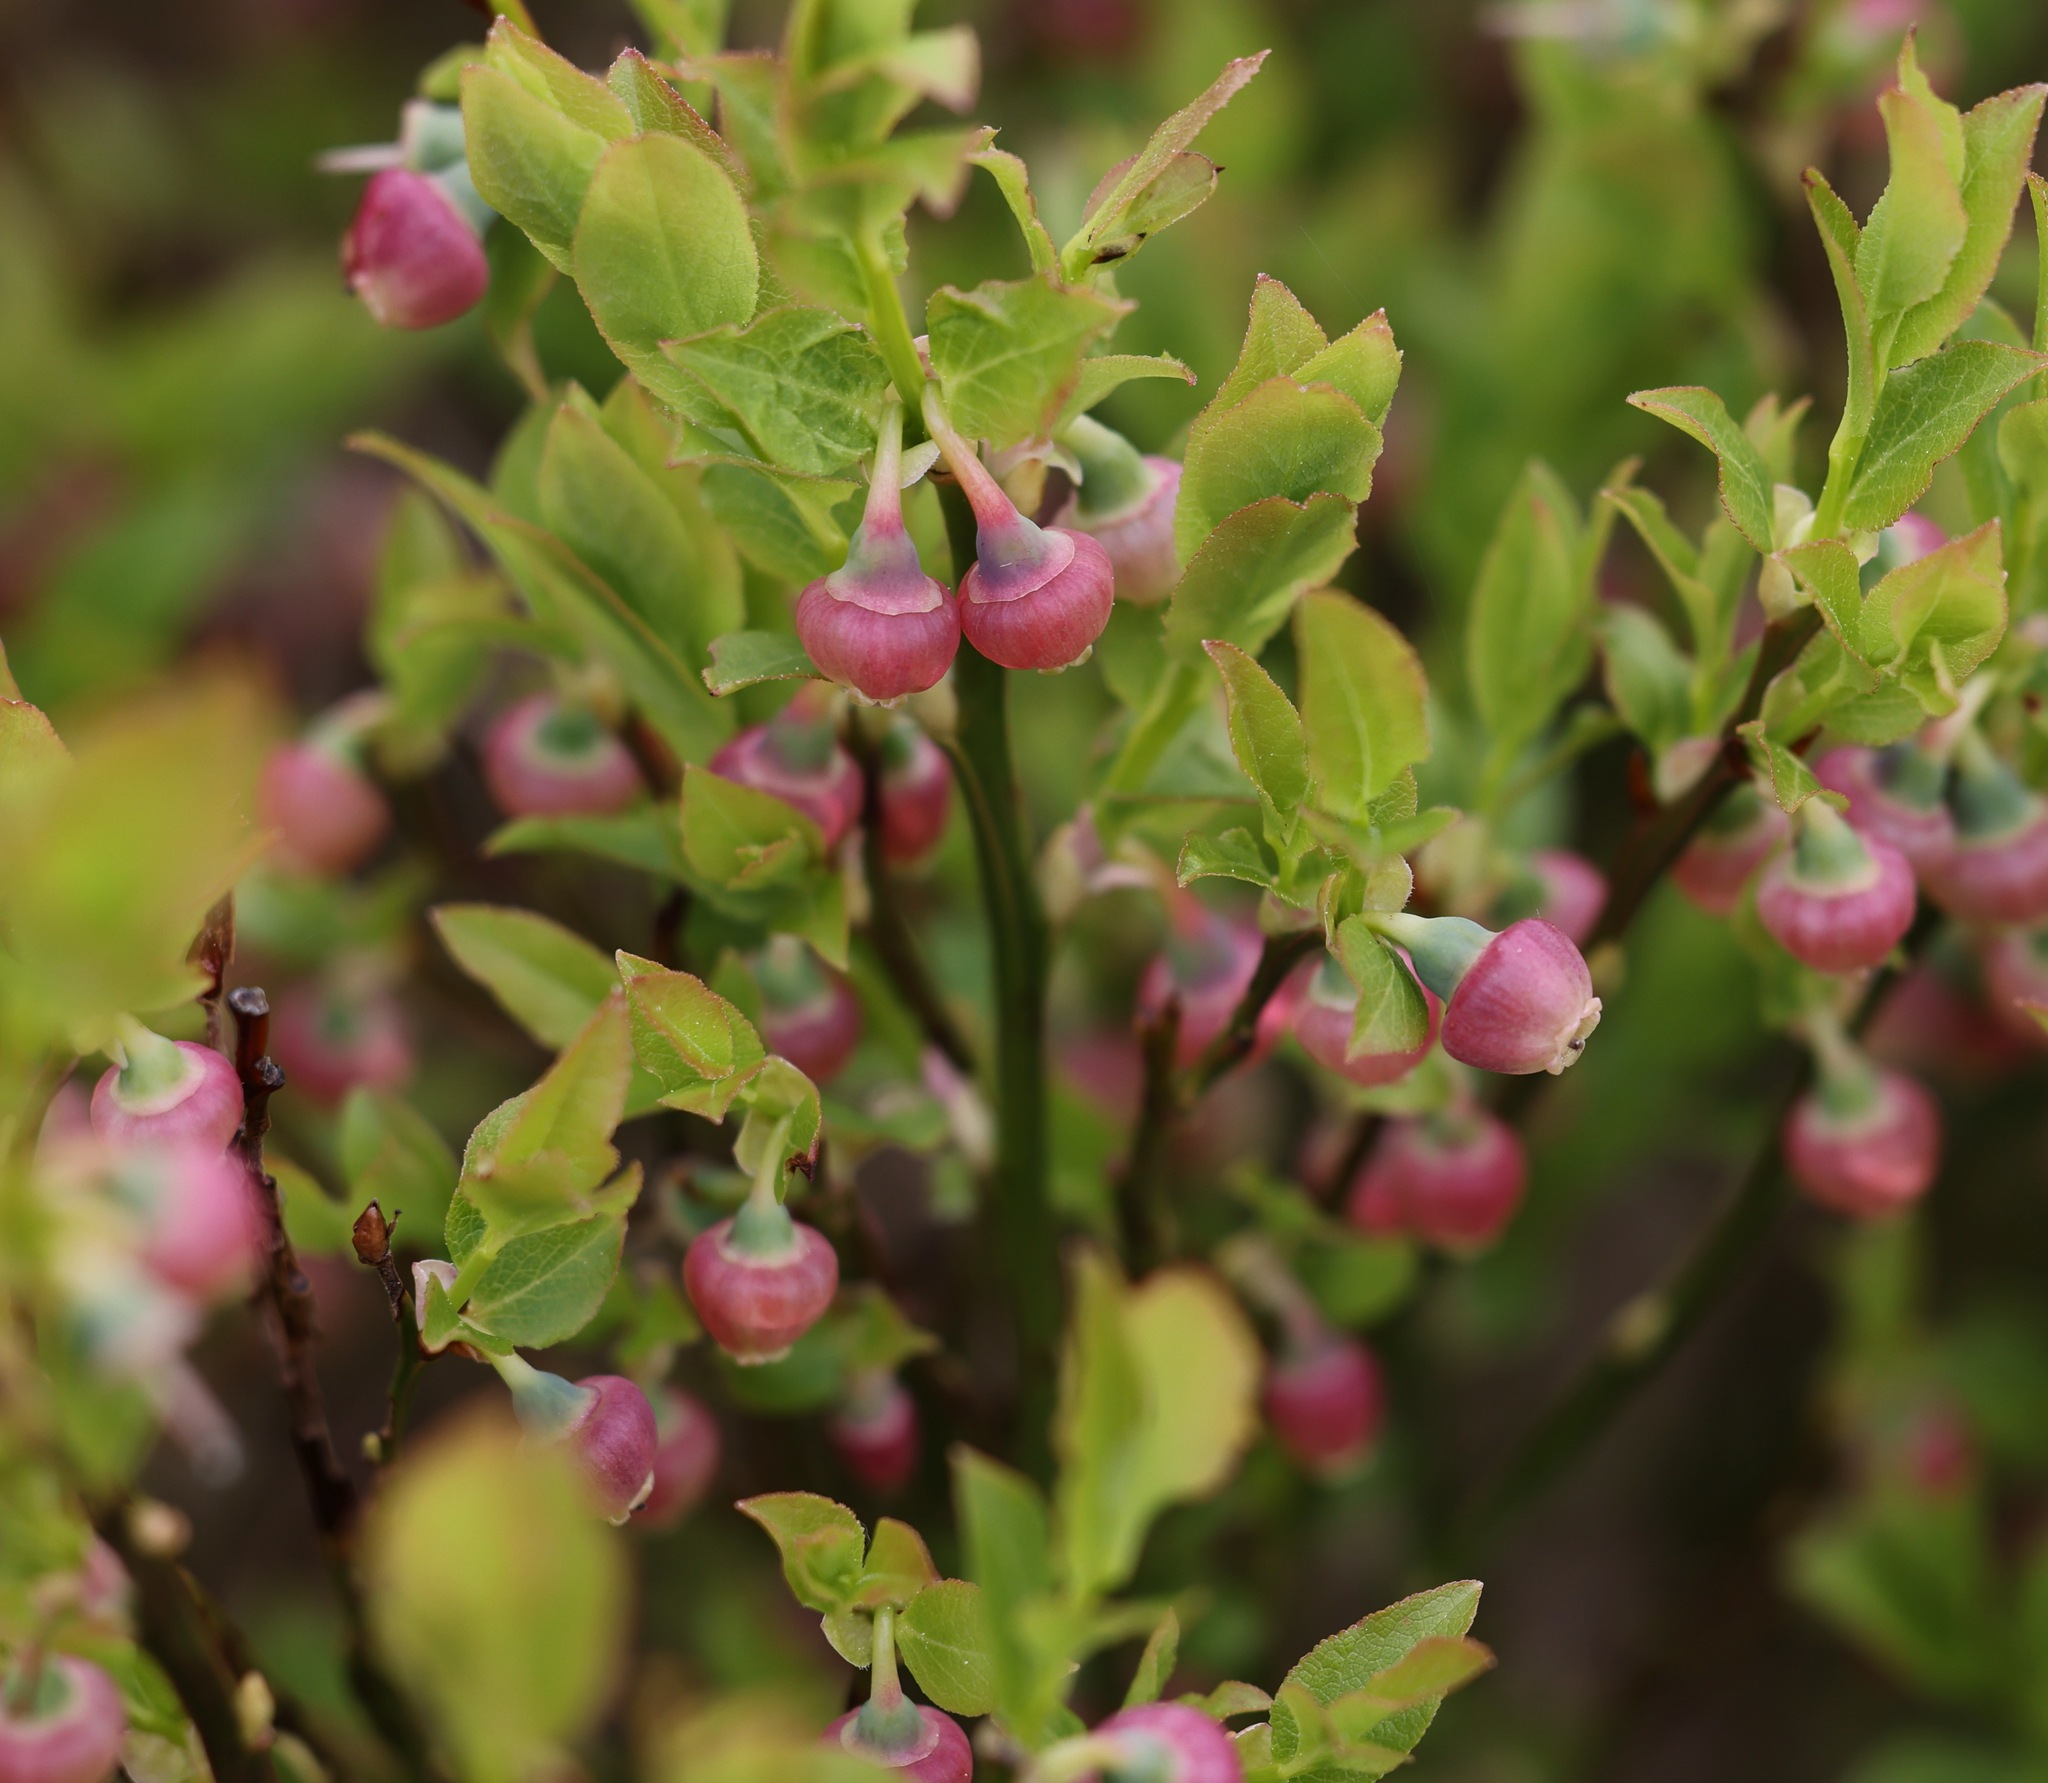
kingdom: Plantae
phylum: Tracheophyta
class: Magnoliopsida
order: Ericales
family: Ericaceae
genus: Vaccinium
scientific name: Vaccinium myrtillus
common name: Bilberry
